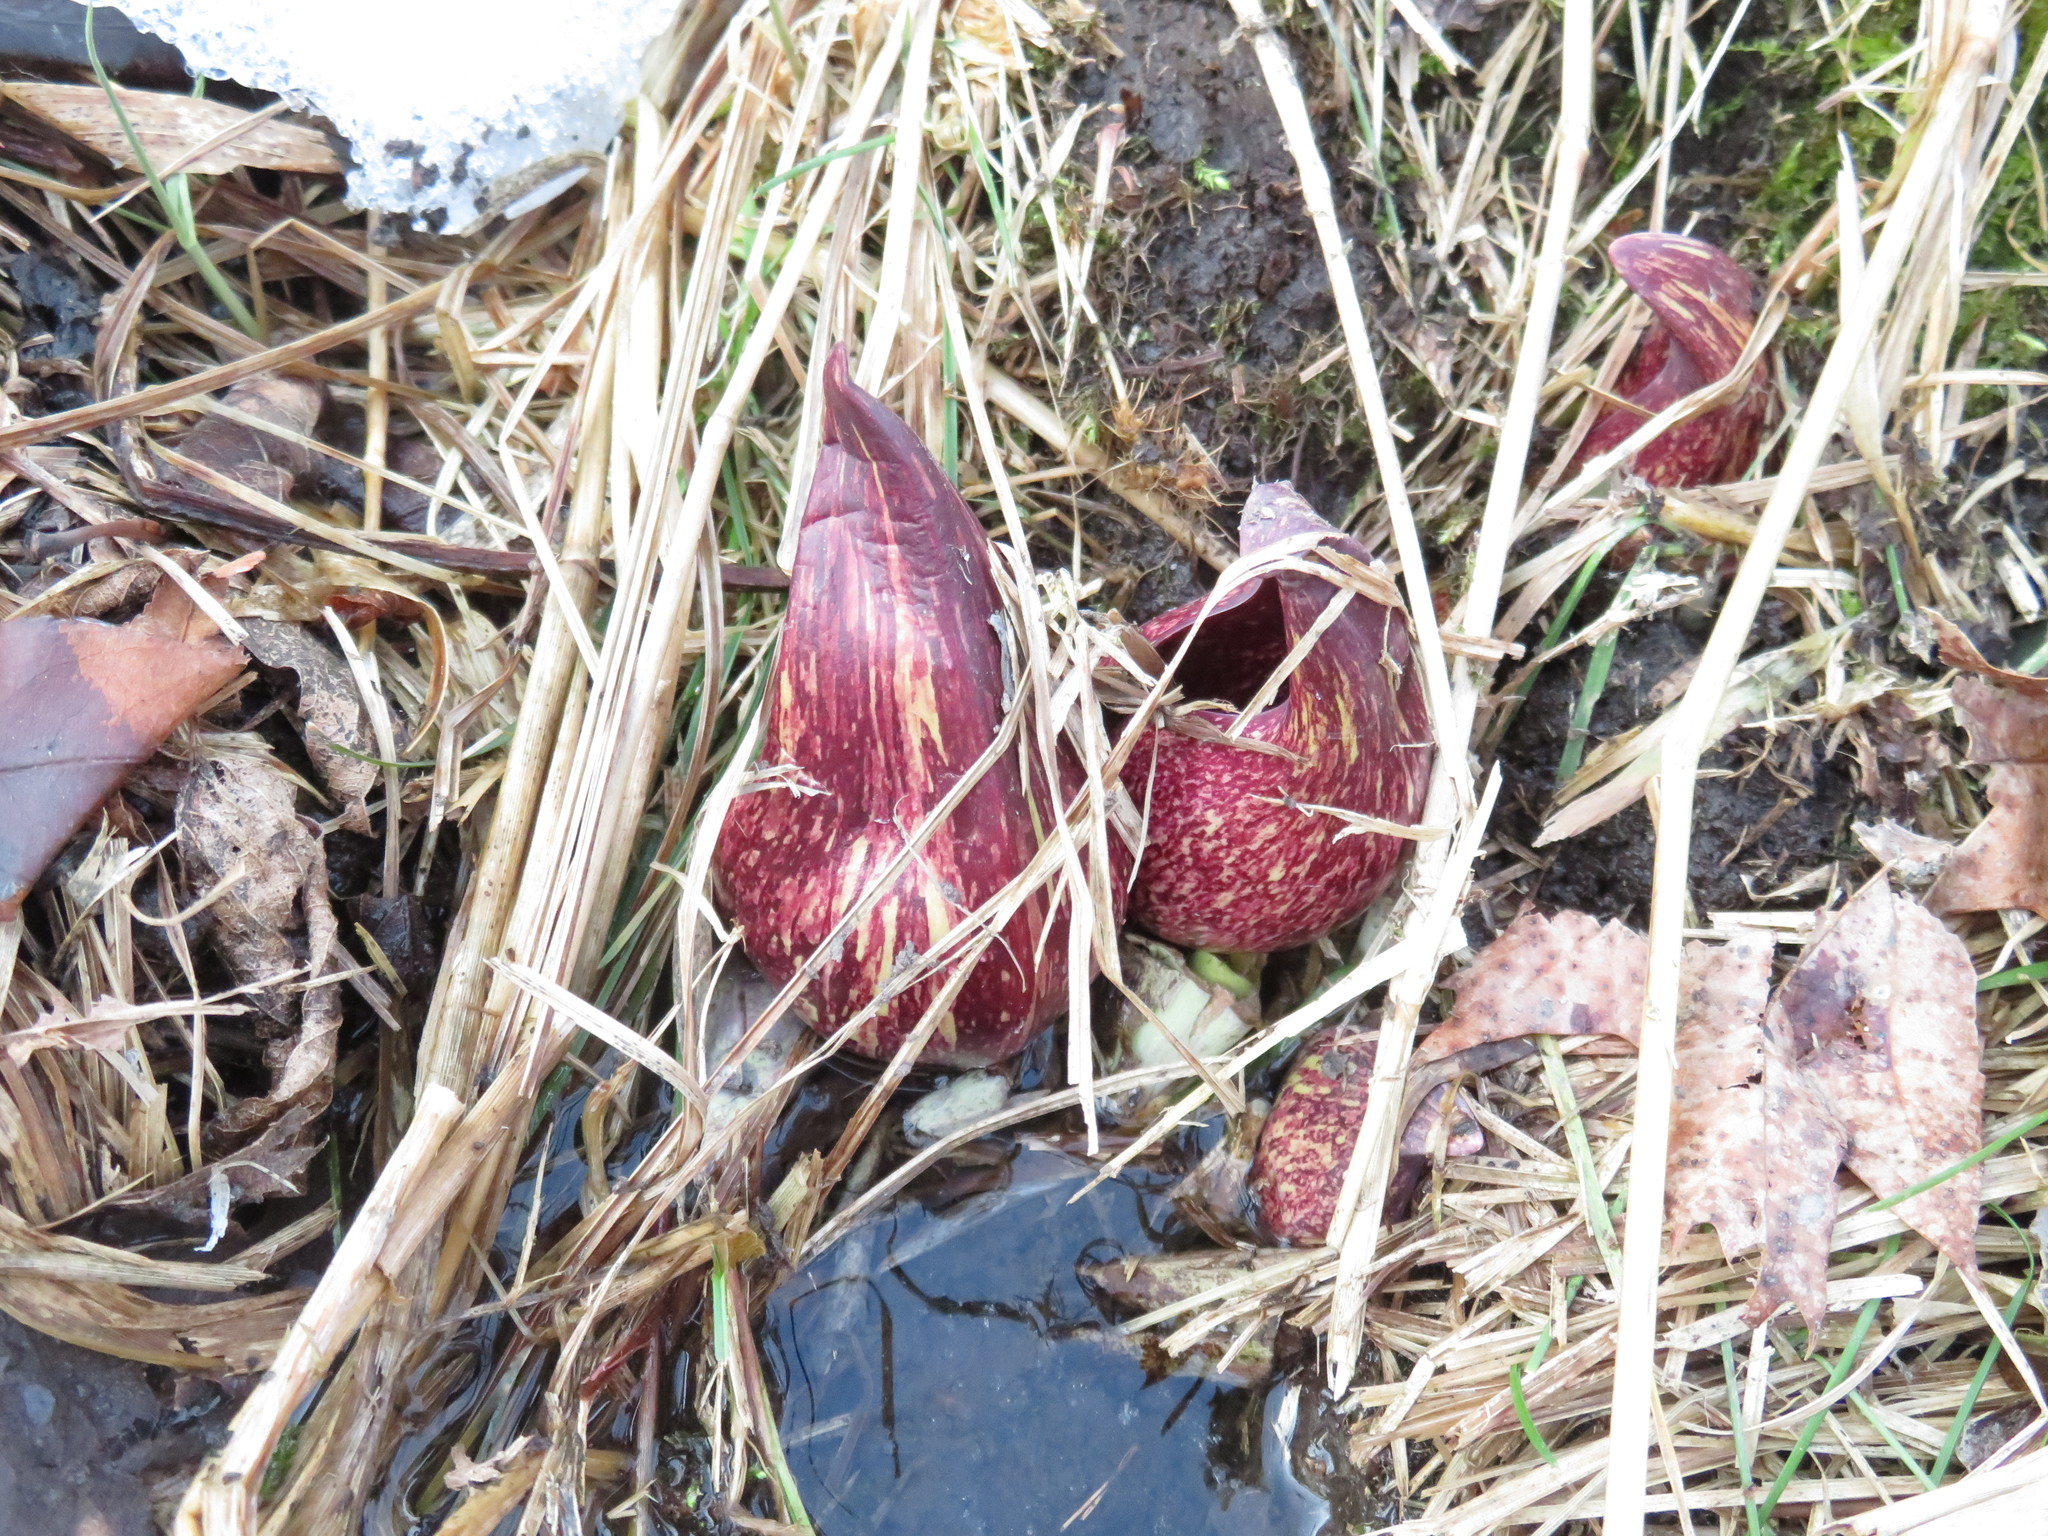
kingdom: Plantae
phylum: Tracheophyta
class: Liliopsida
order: Alismatales
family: Araceae
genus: Symplocarpus
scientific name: Symplocarpus foetidus
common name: Eastern skunk cabbage
